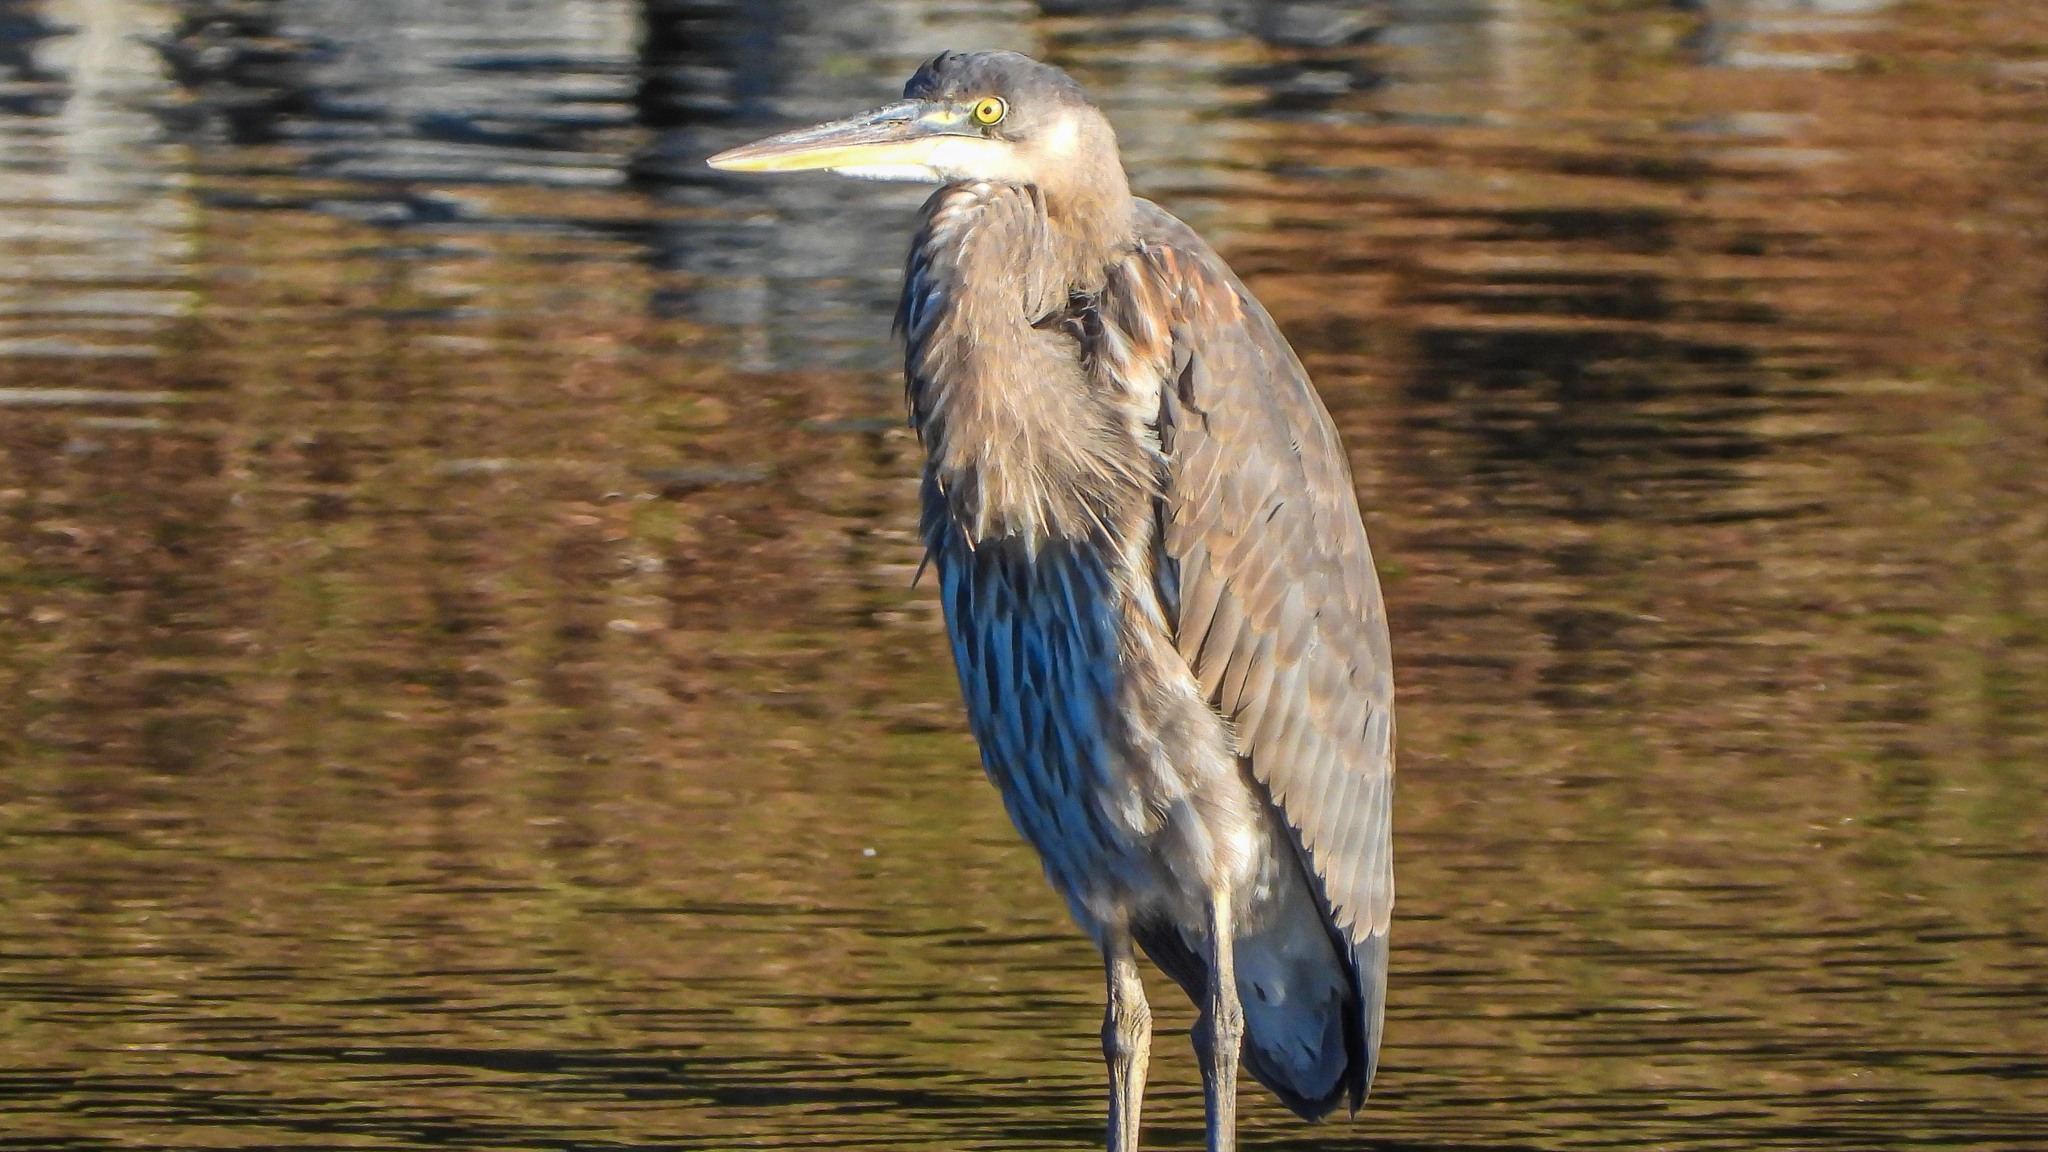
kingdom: Animalia
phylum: Chordata
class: Aves
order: Pelecaniformes
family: Ardeidae
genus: Ardea
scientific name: Ardea herodias
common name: Great blue heron
